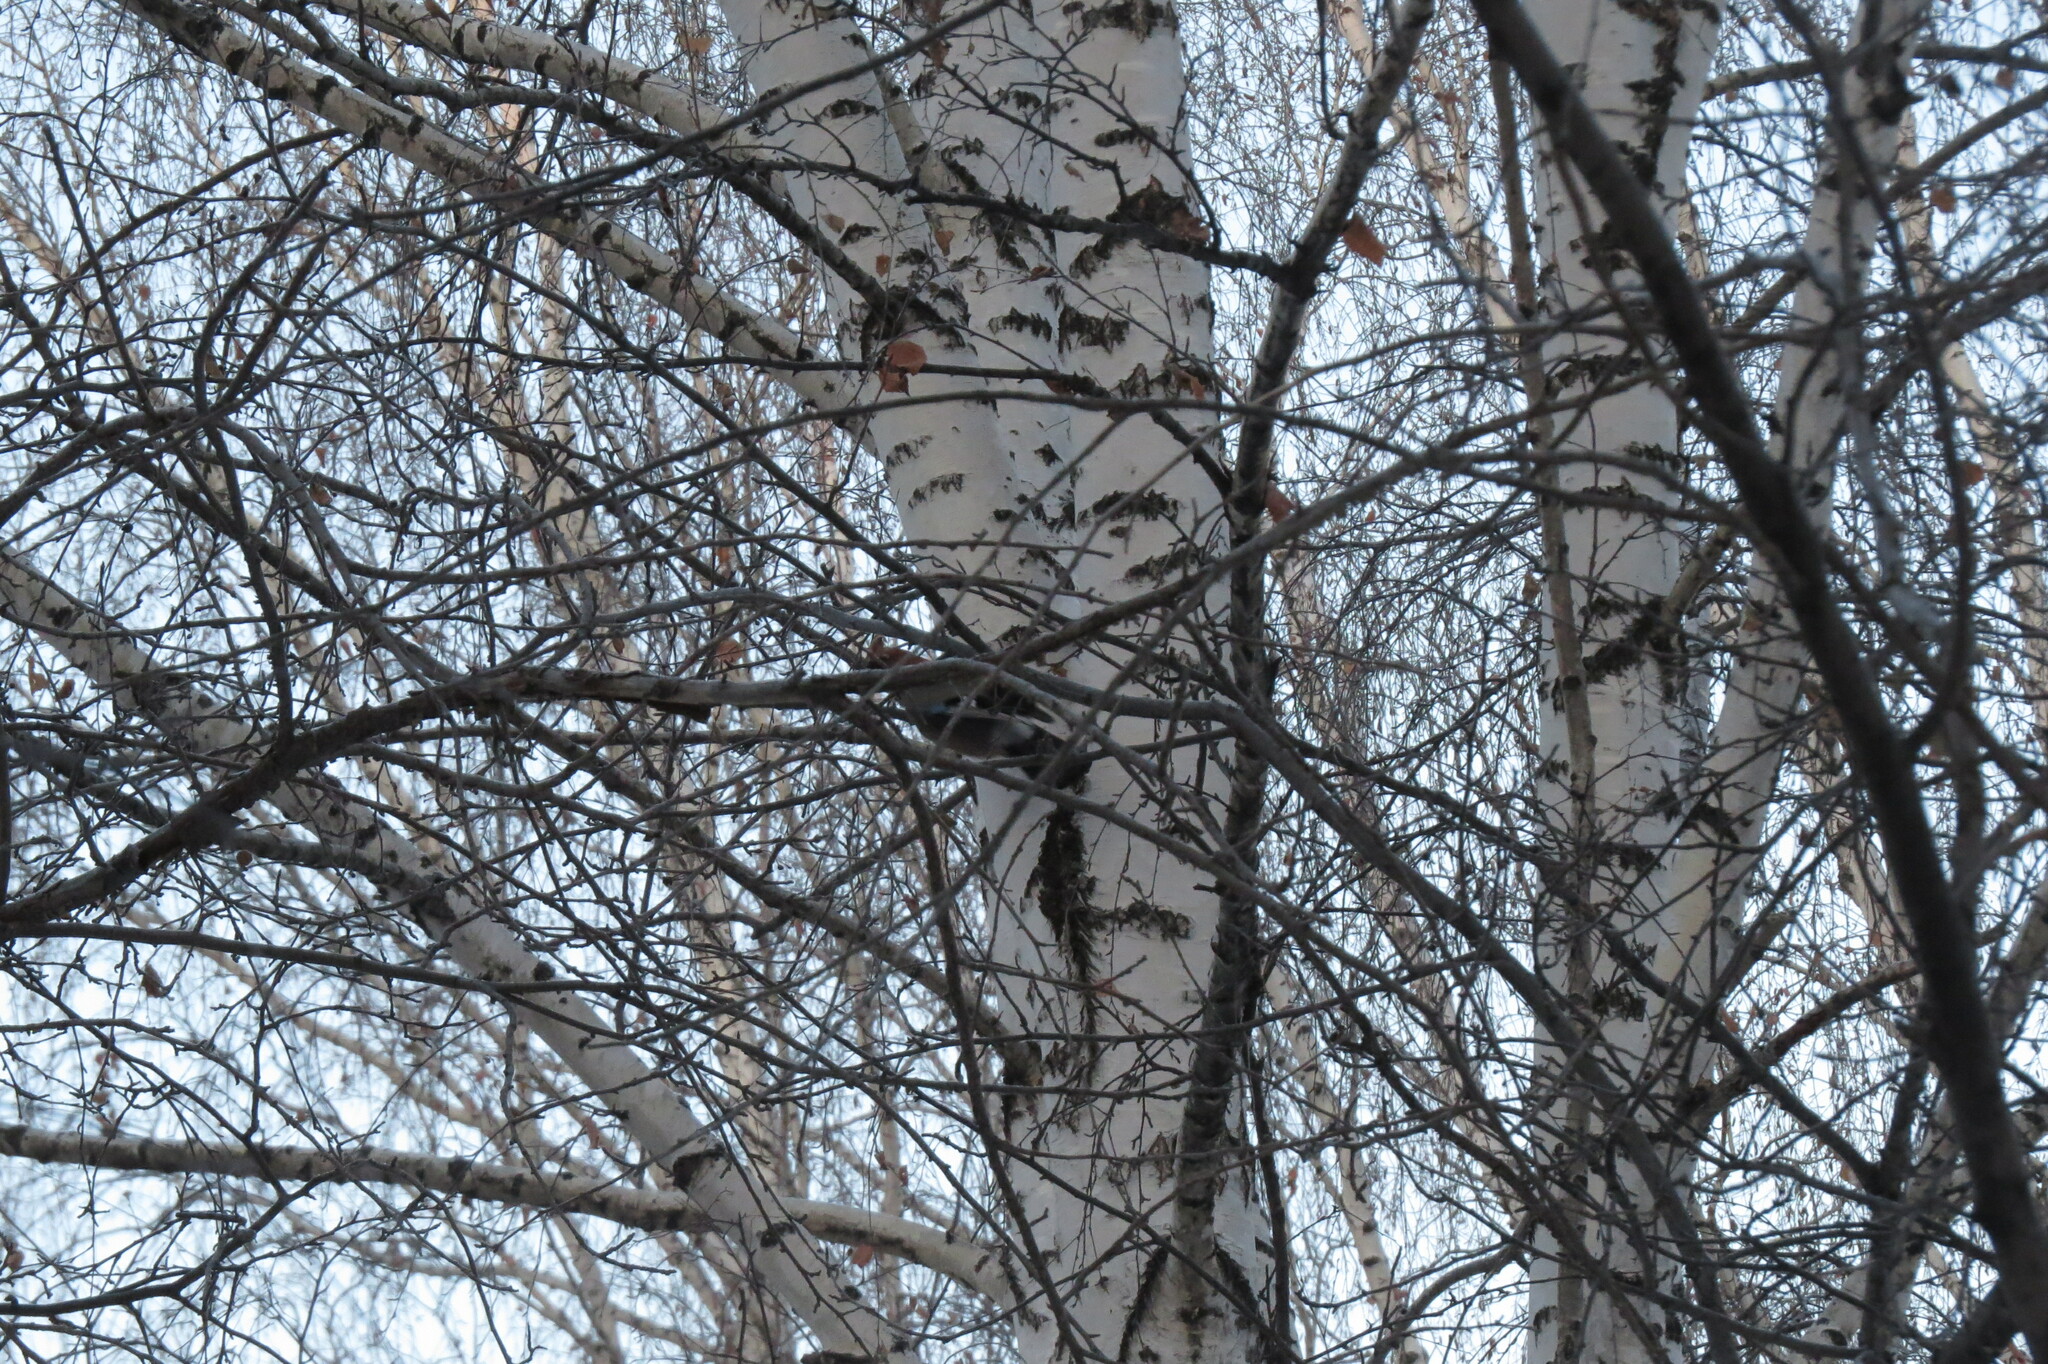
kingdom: Animalia
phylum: Chordata
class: Aves
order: Passeriformes
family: Corvidae
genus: Garrulus
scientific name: Garrulus glandarius
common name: Eurasian jay
